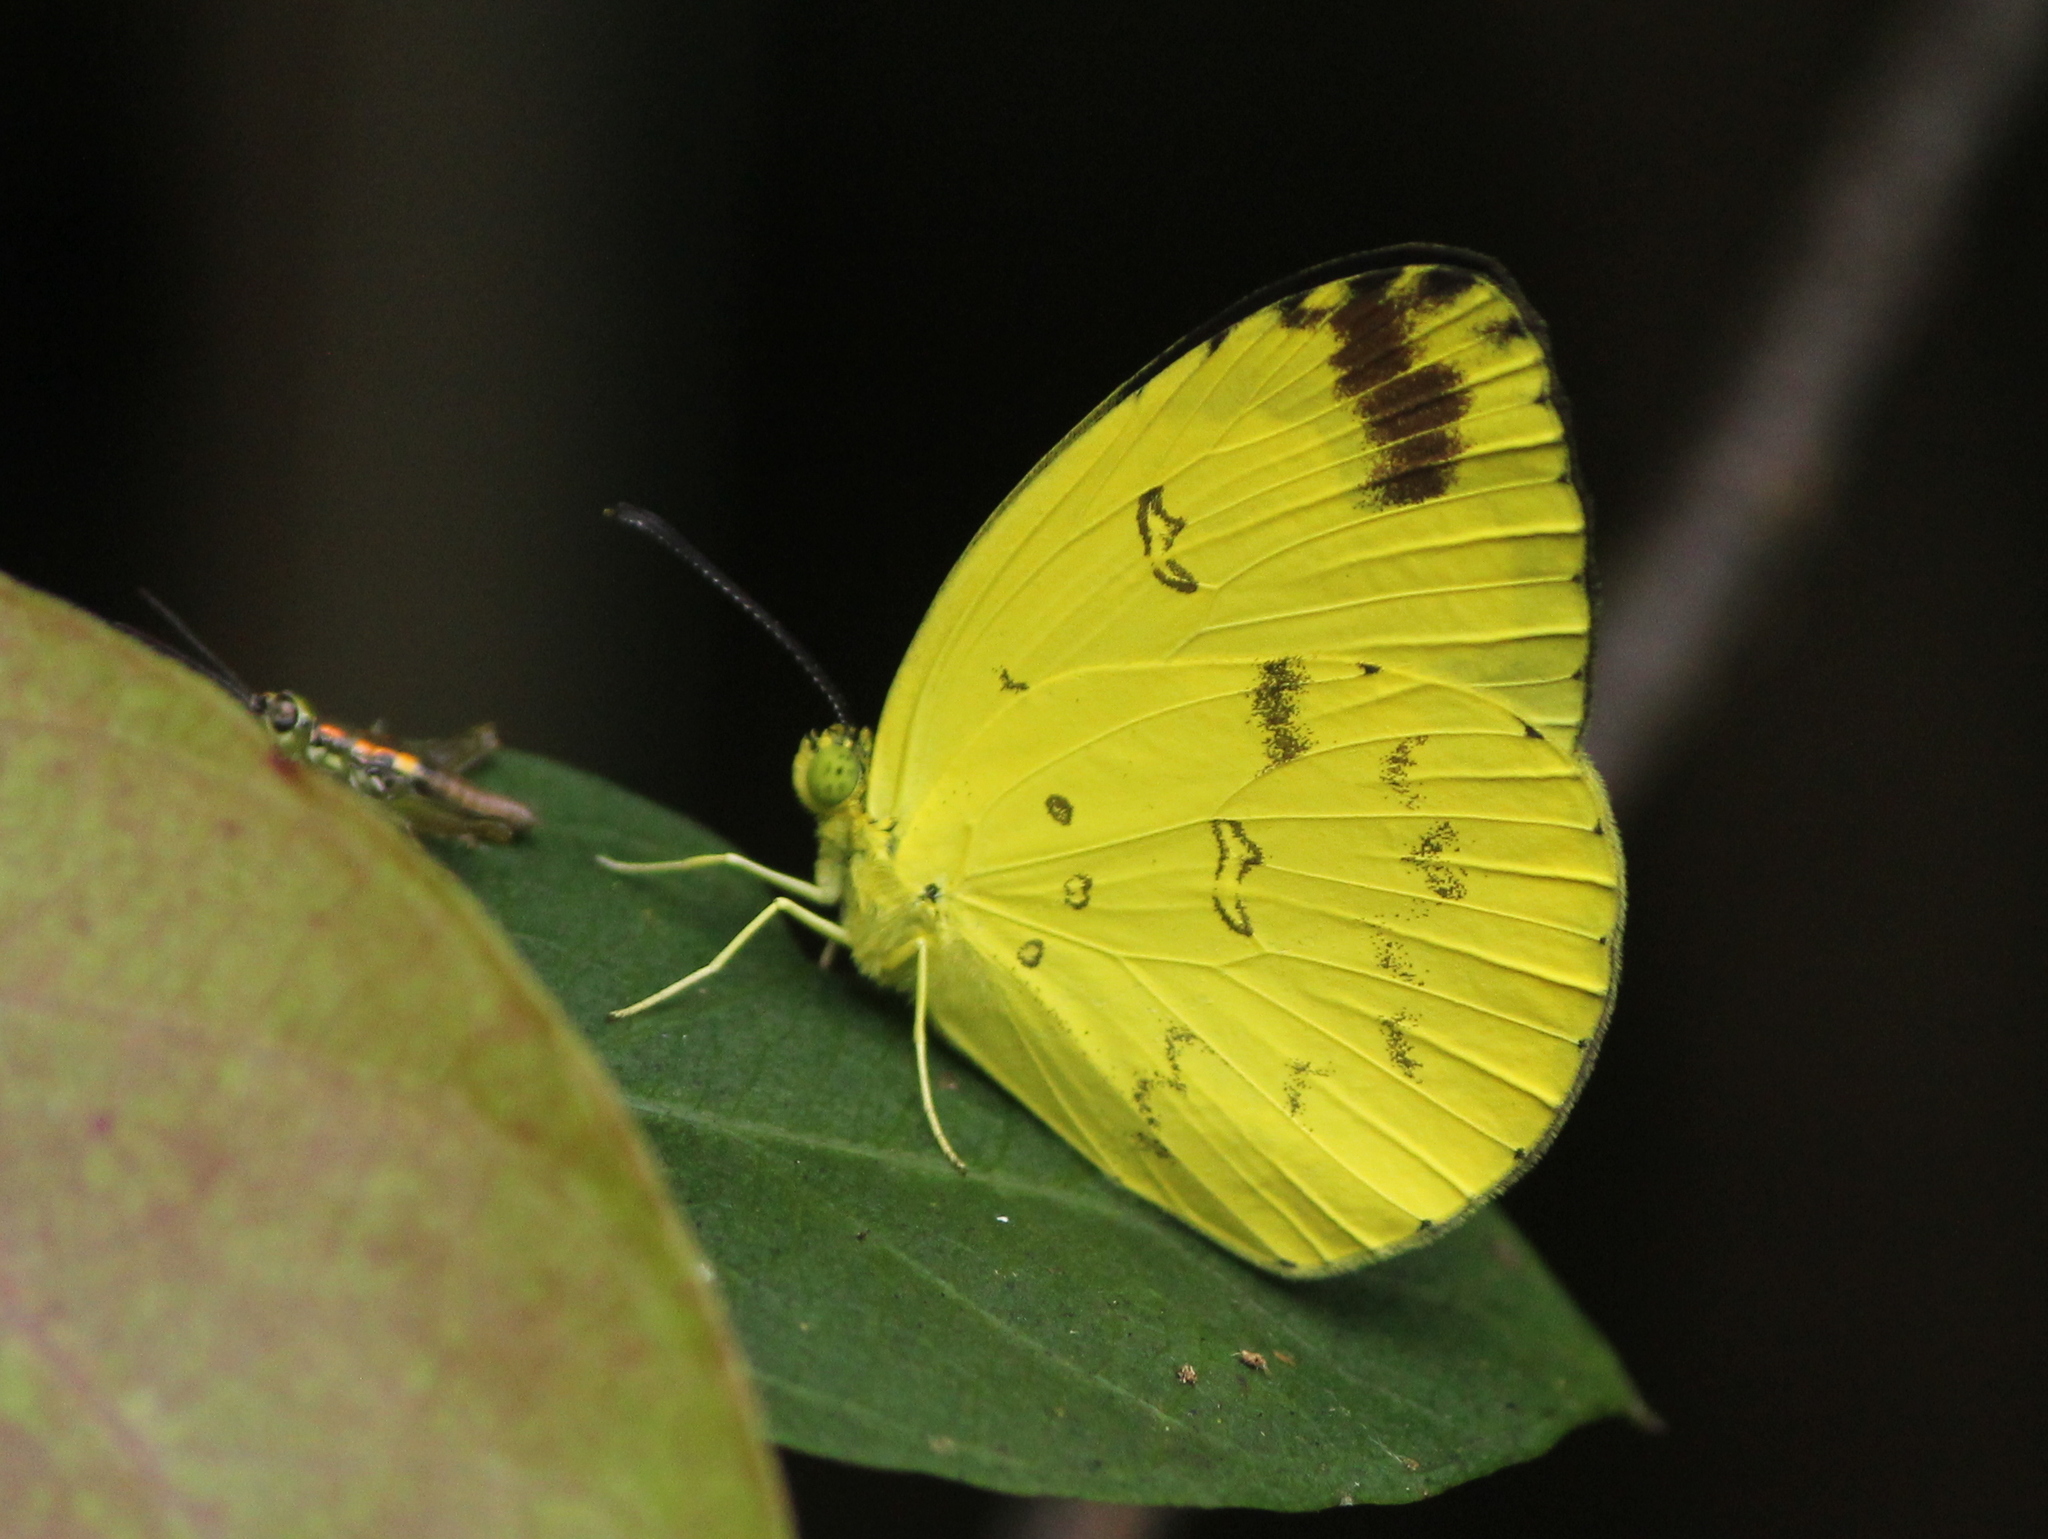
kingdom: Animalia
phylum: Arthropoda
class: Insecta
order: Lepidoptera
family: Pieridae
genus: Eurema
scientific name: Eurema andersoni
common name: One-spot yellow grass
